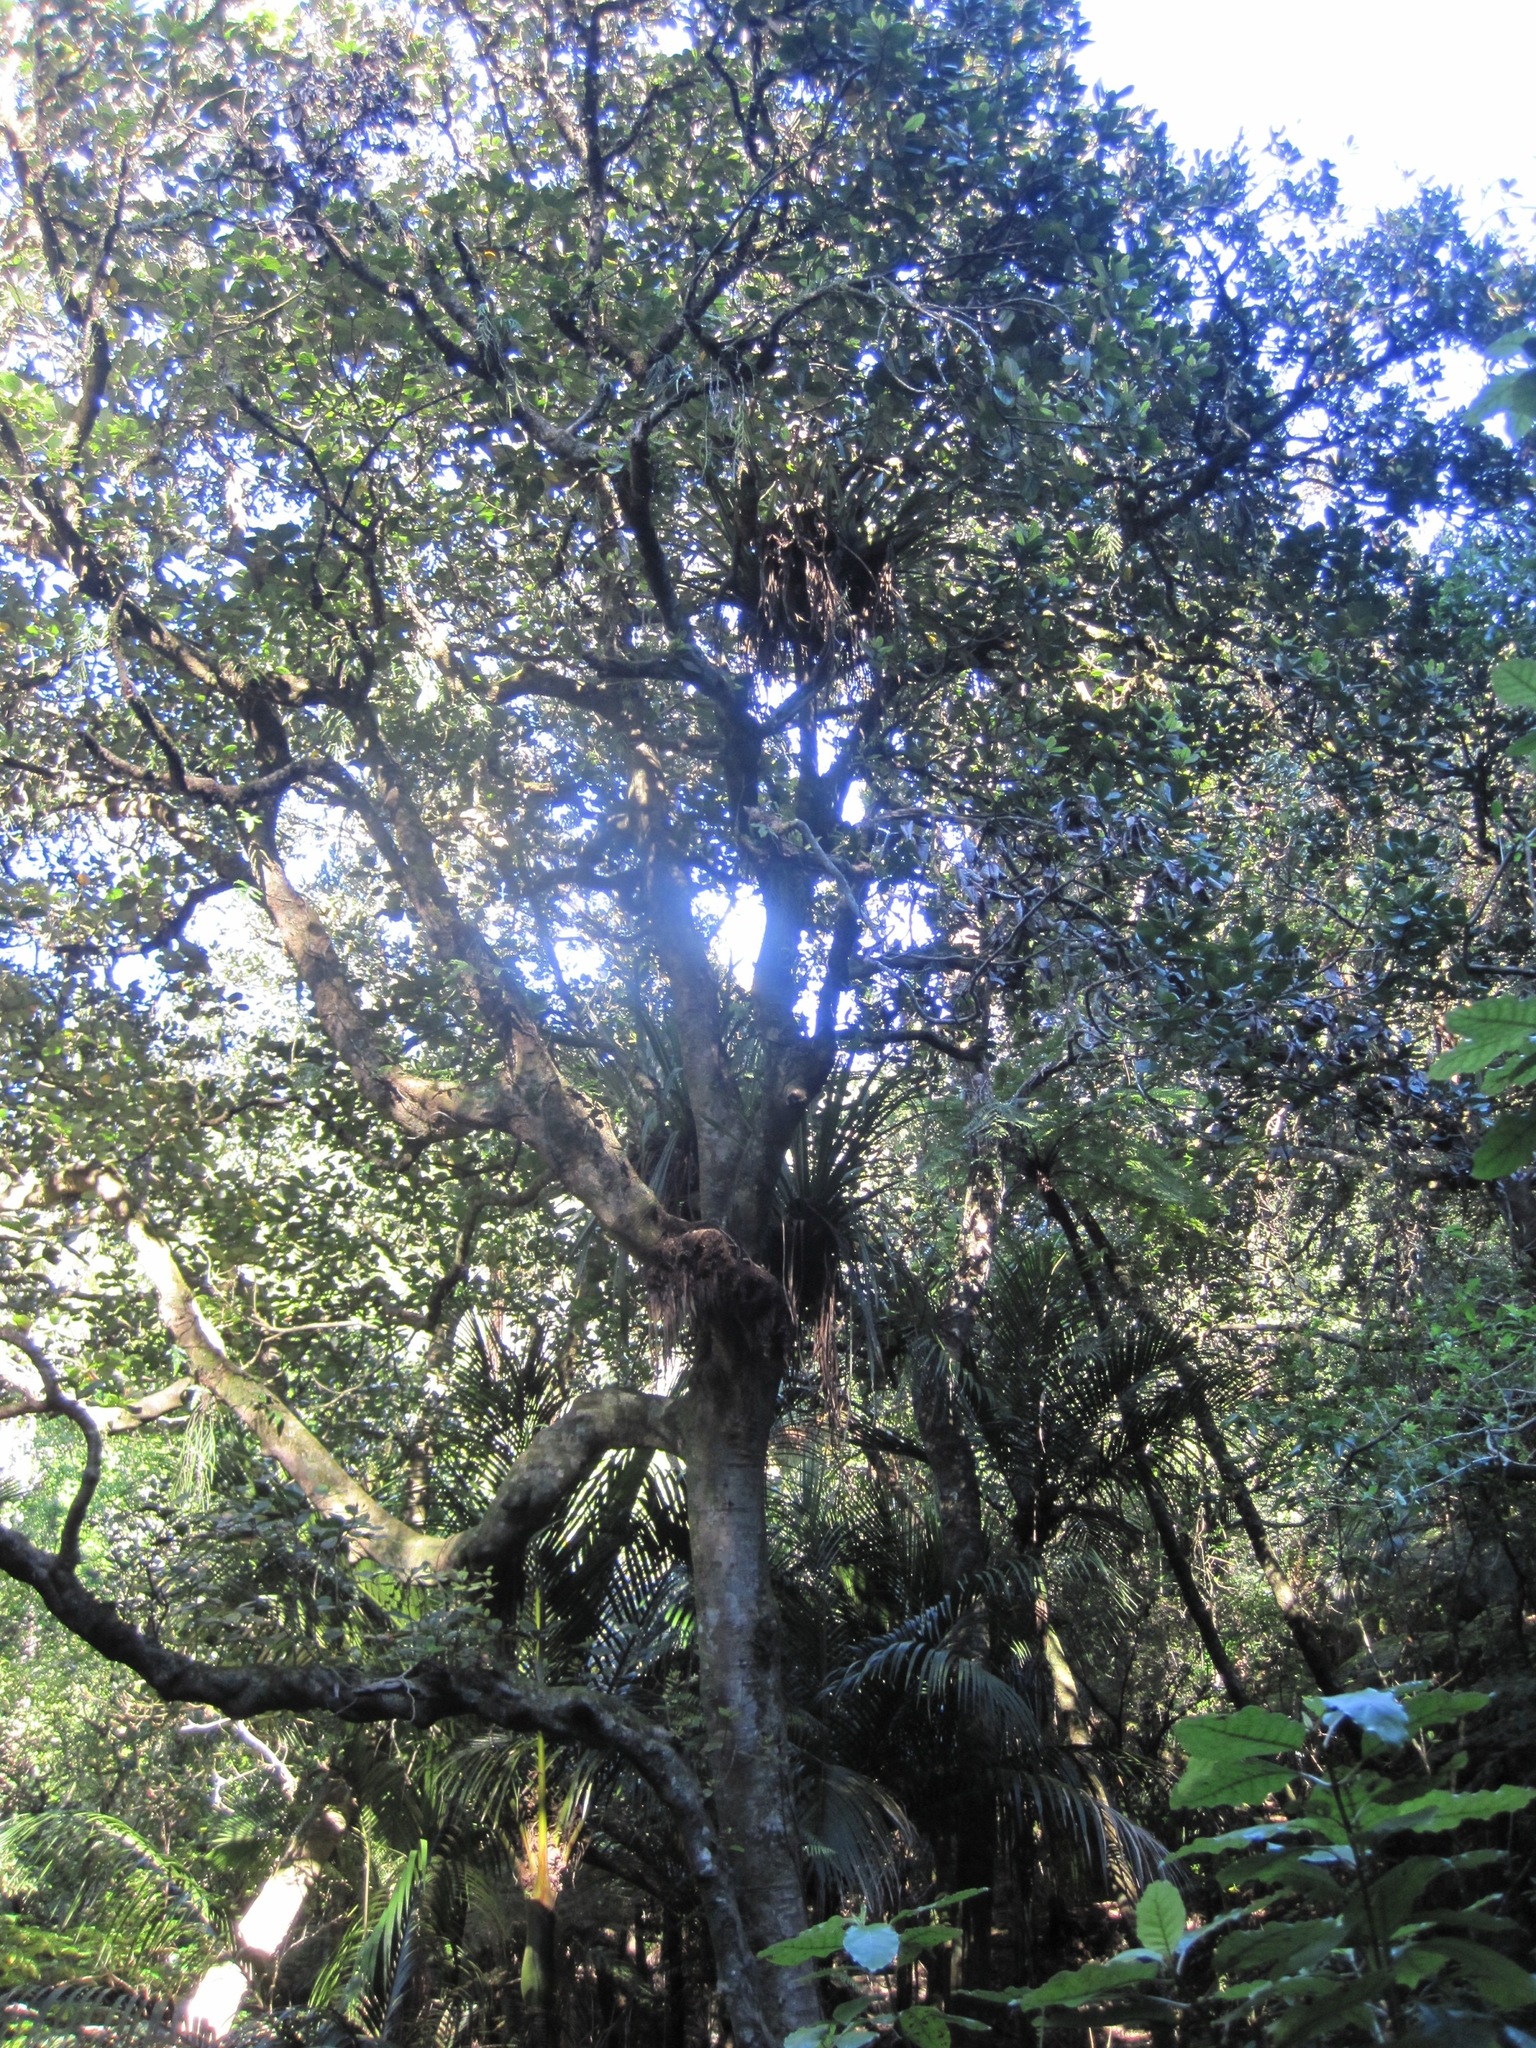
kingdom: Plantae
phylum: Tracheophyta
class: Magnoliopsida
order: Laurales
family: Lauraceae
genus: Beilschmiedia
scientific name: Beilschmiedia tarairi
